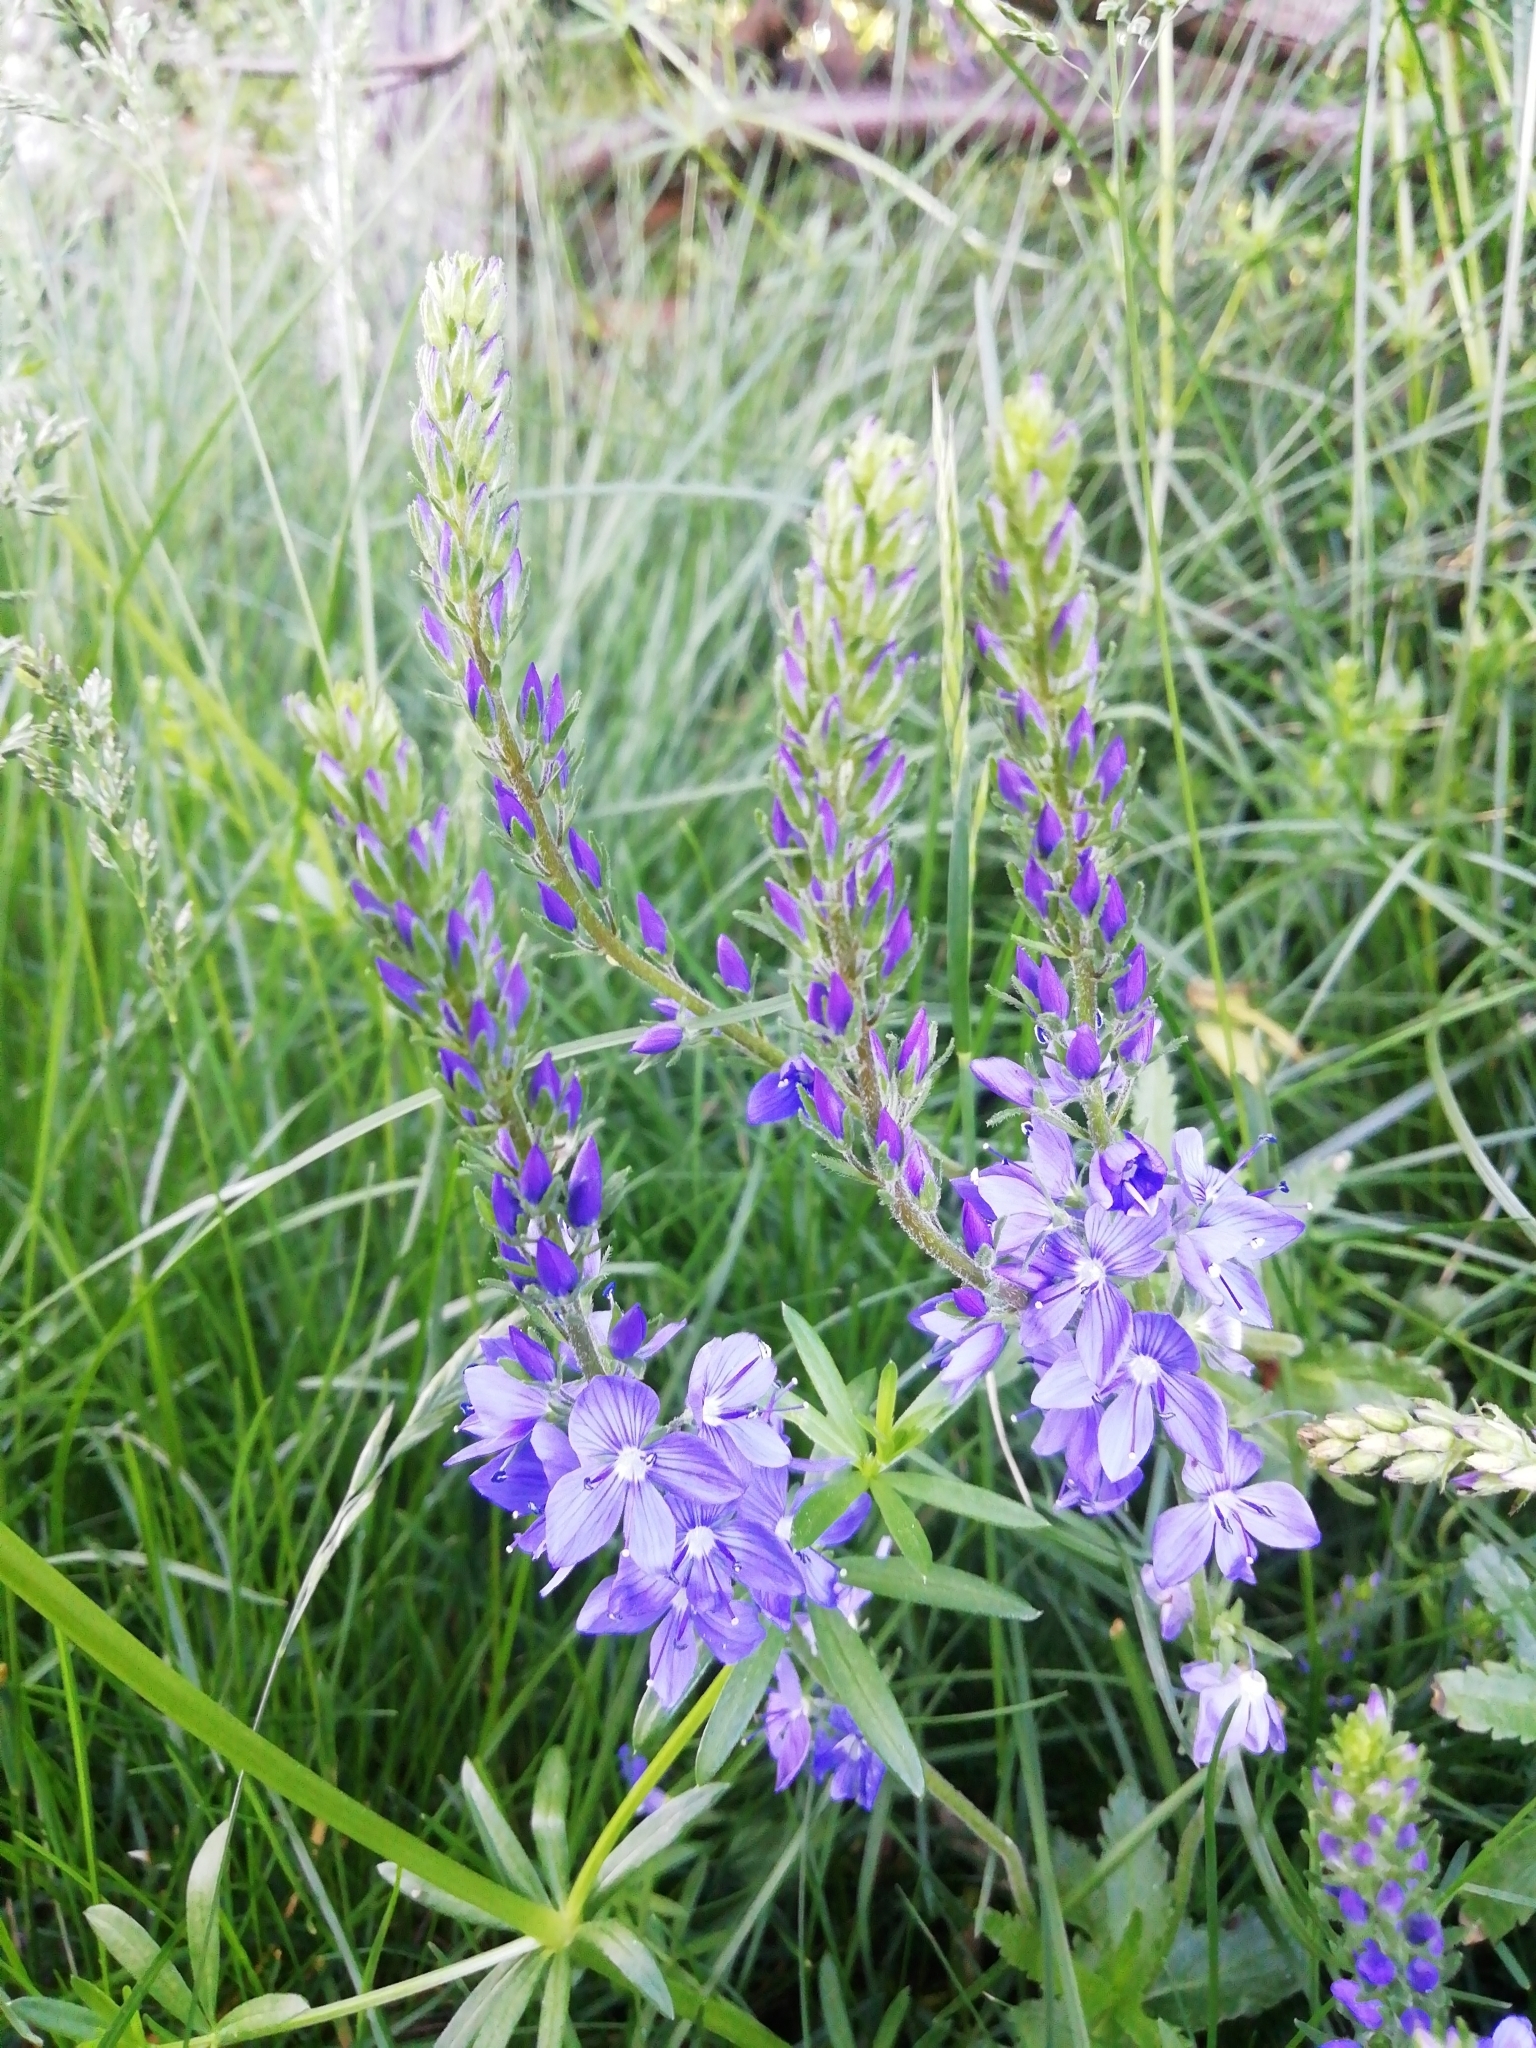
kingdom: Plantae
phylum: Tracheophyta
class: Magnoliopsida
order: Lamiales
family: Plantaginaceae
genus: Veronica
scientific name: Veronica teucrium
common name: Large speedwell
